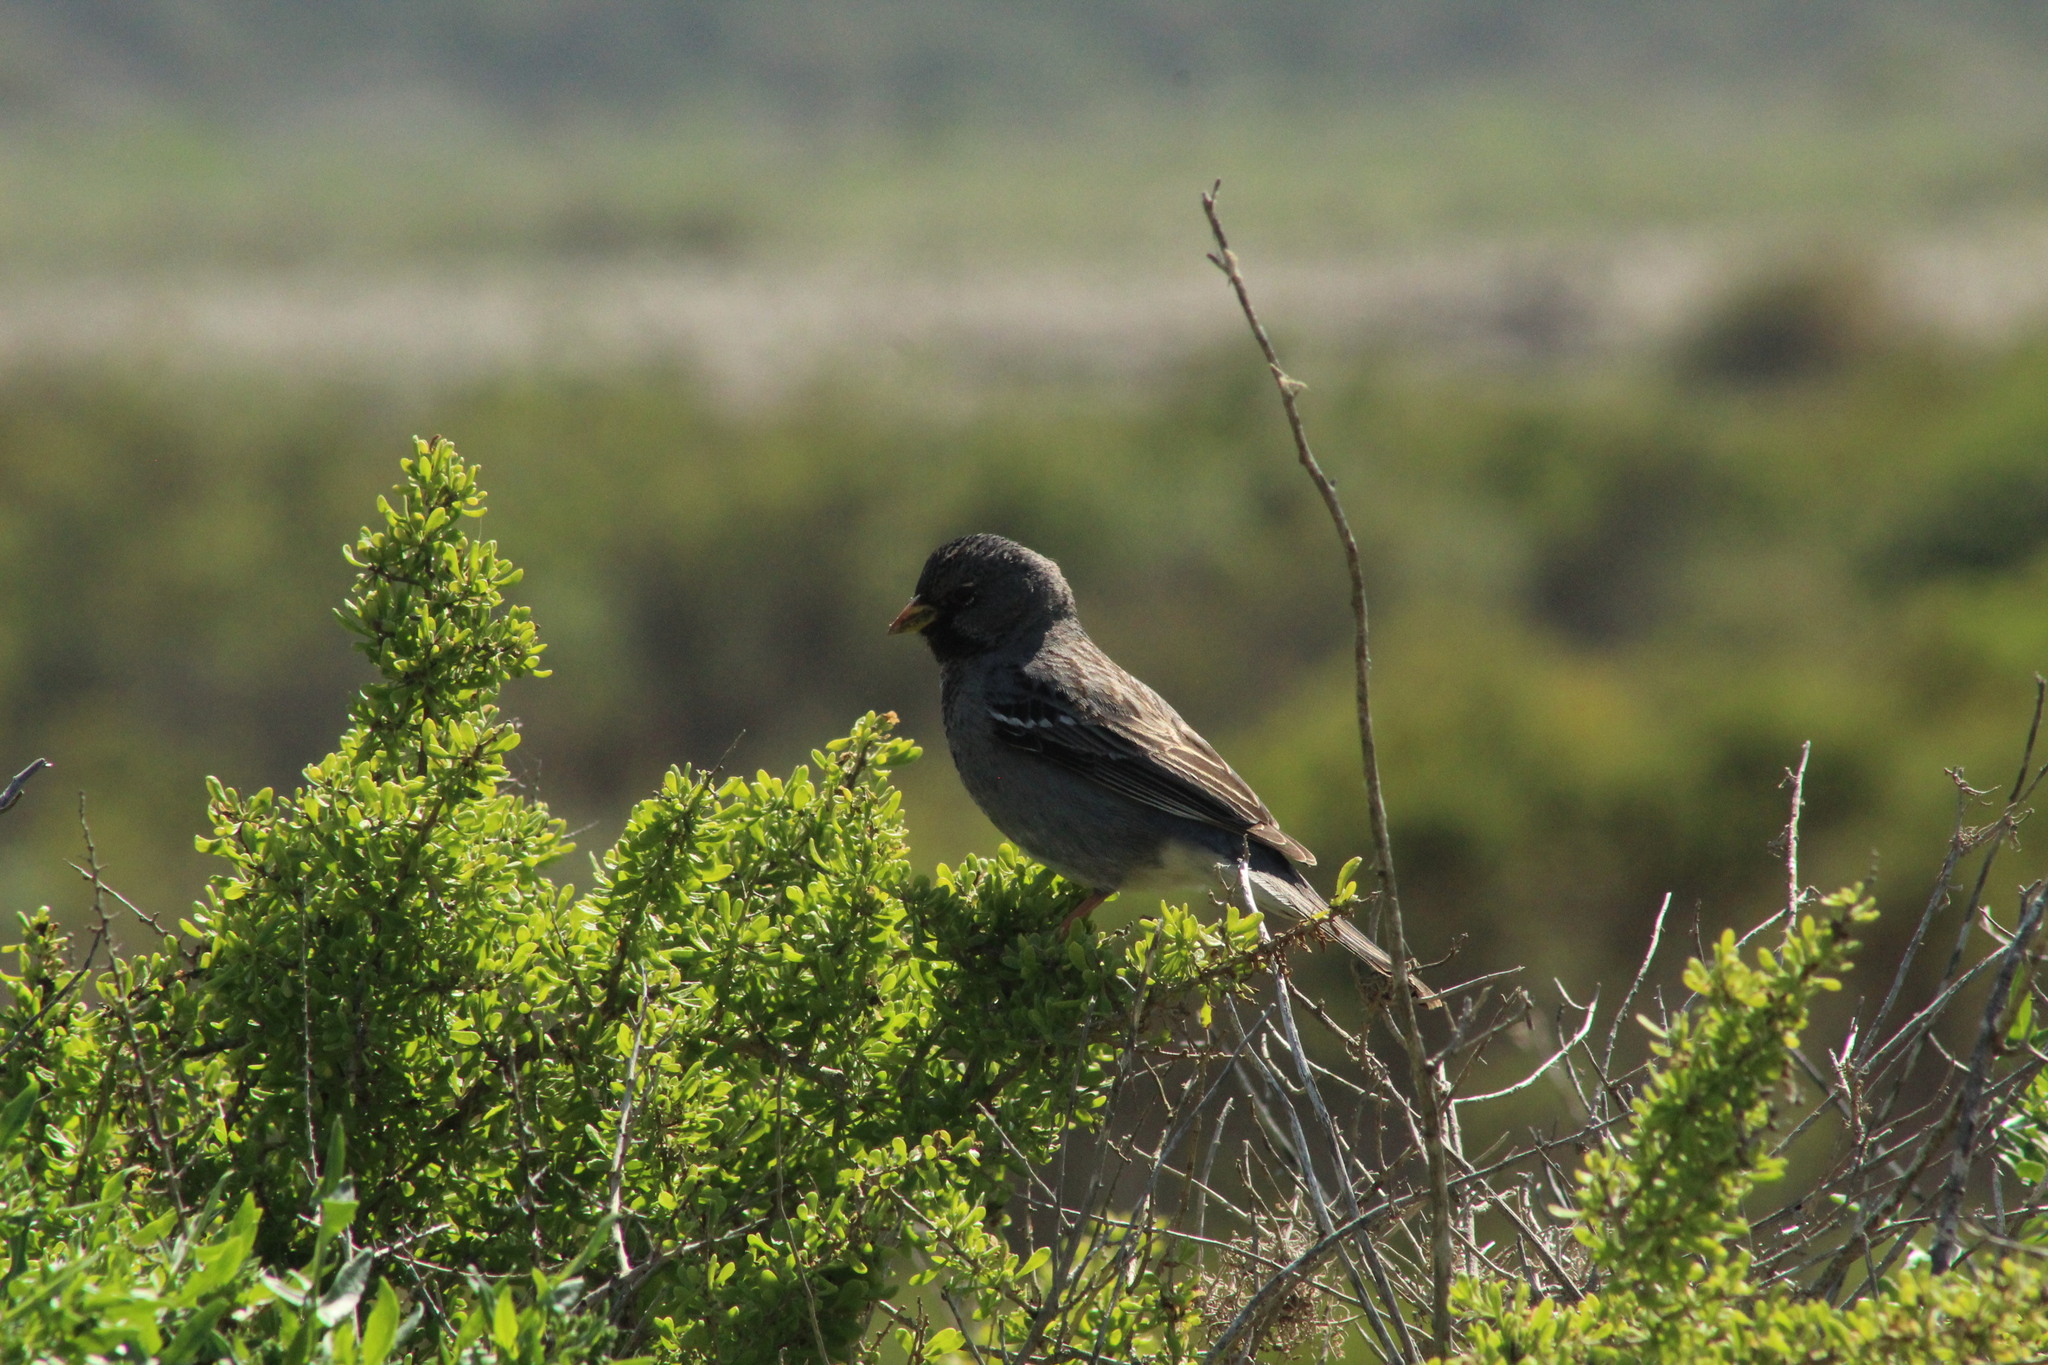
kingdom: Animalia
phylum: Chordata
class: Aves
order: Passeriformes
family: Thraupidae
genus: Rhopospina
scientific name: Rhopospina fruticeti
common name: Mourning sierra finch
